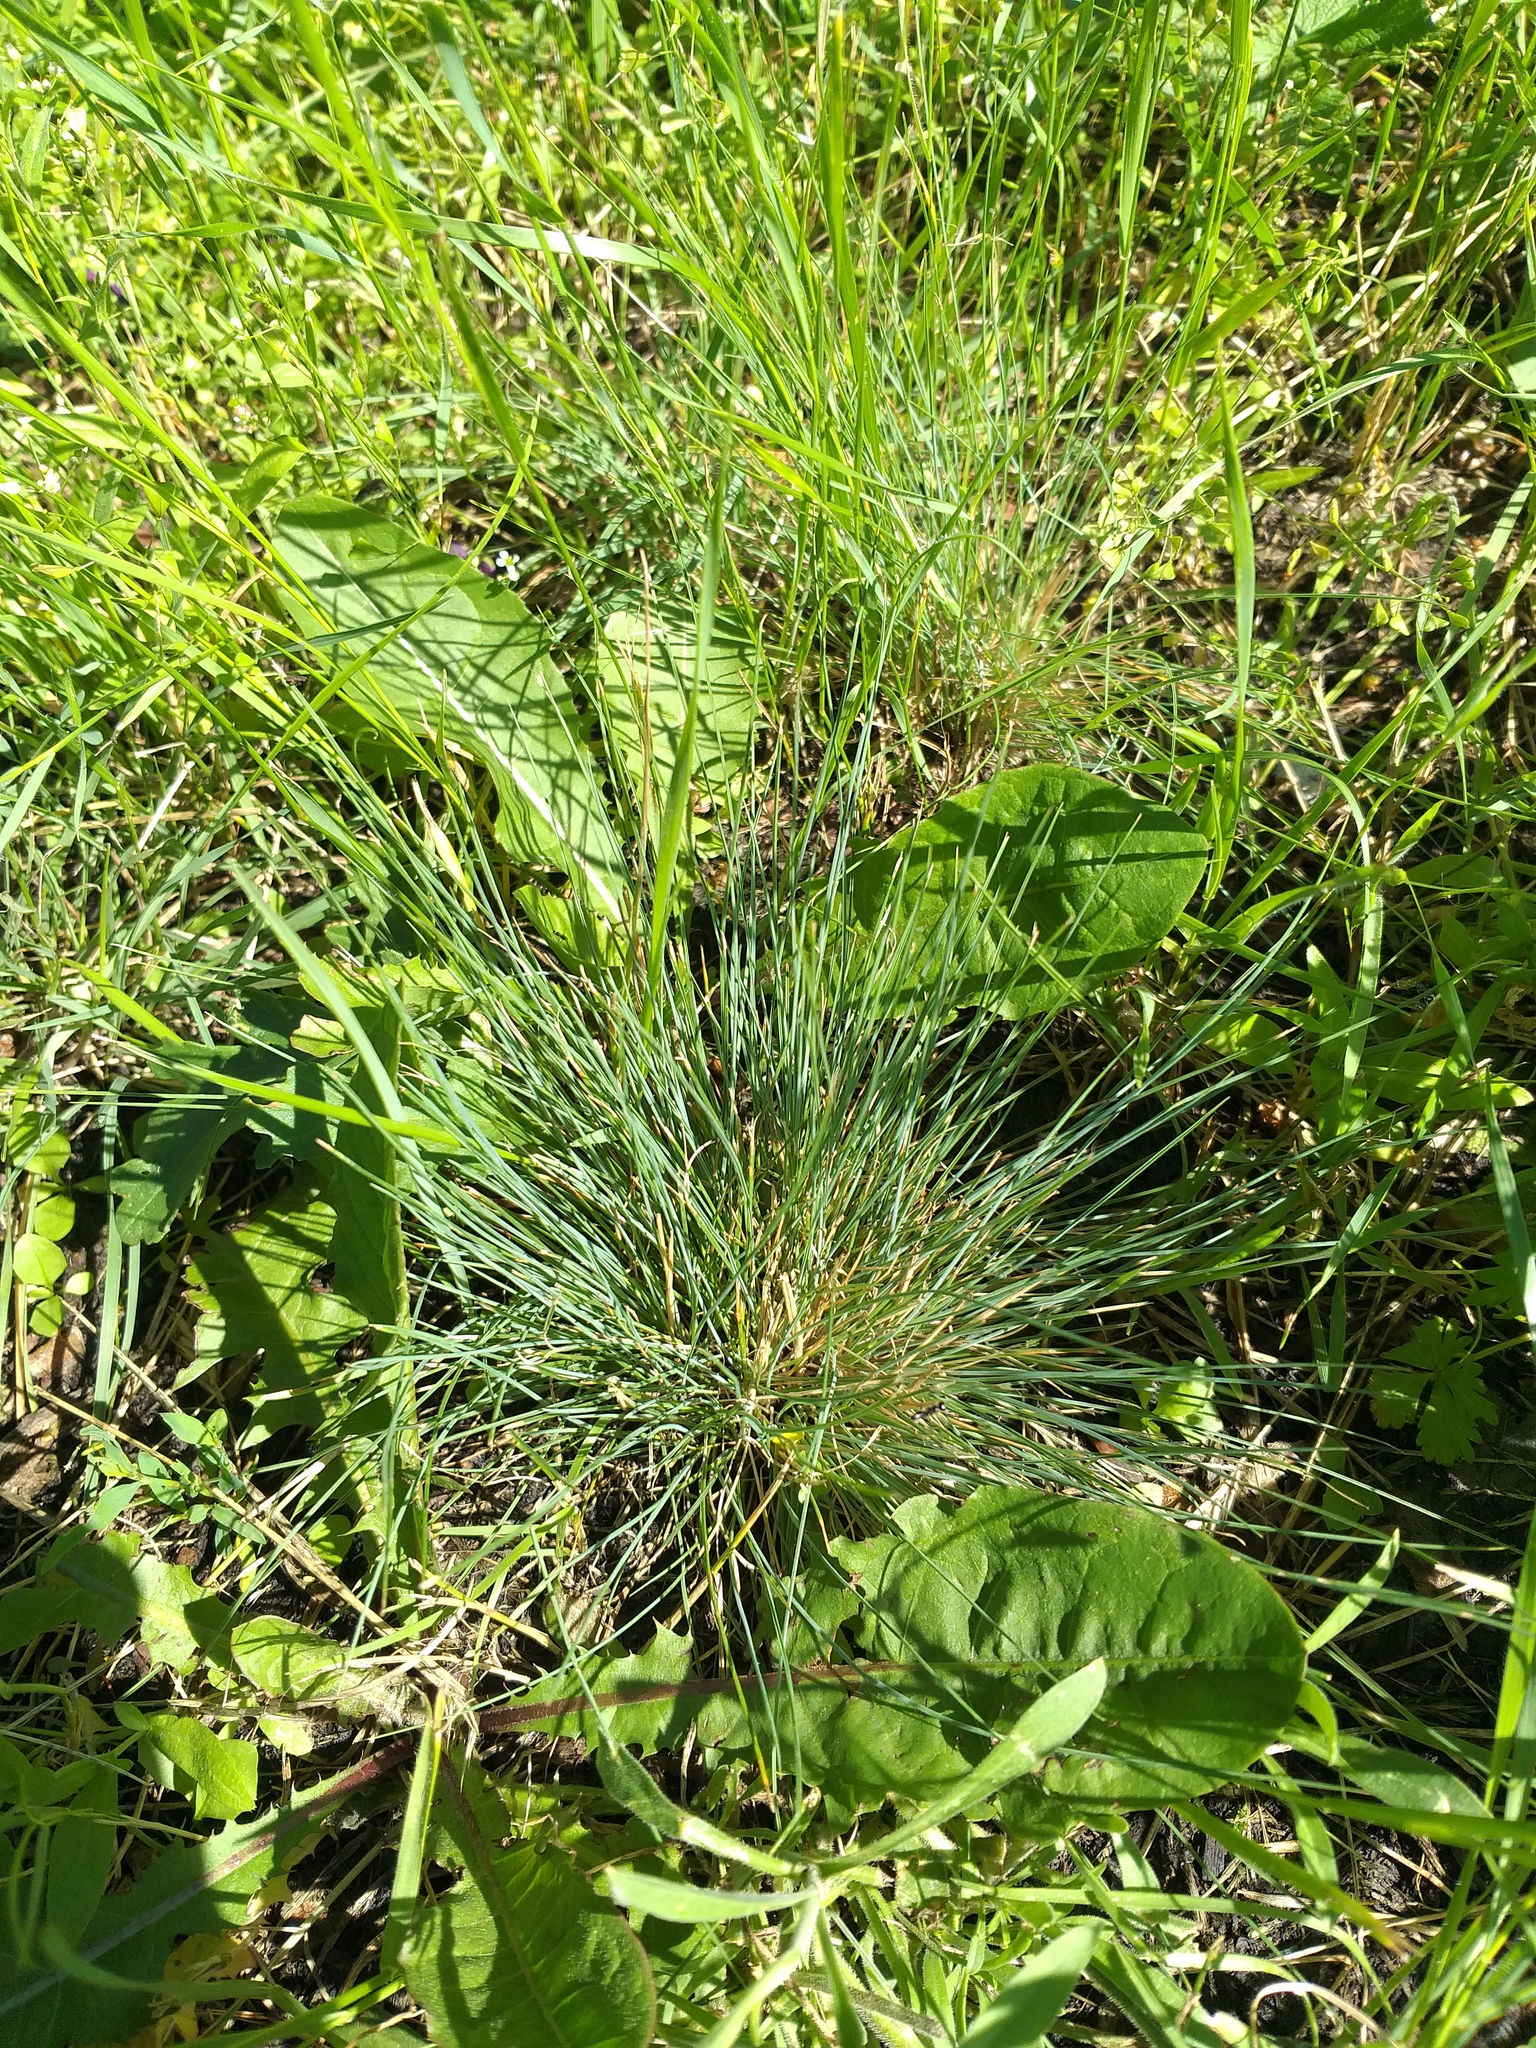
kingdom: Plantae
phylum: Tracheophyta
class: Liliopsida
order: Poales
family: Poaceae
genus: Festuca
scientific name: Festuca valesiaca
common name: Volga fescue
